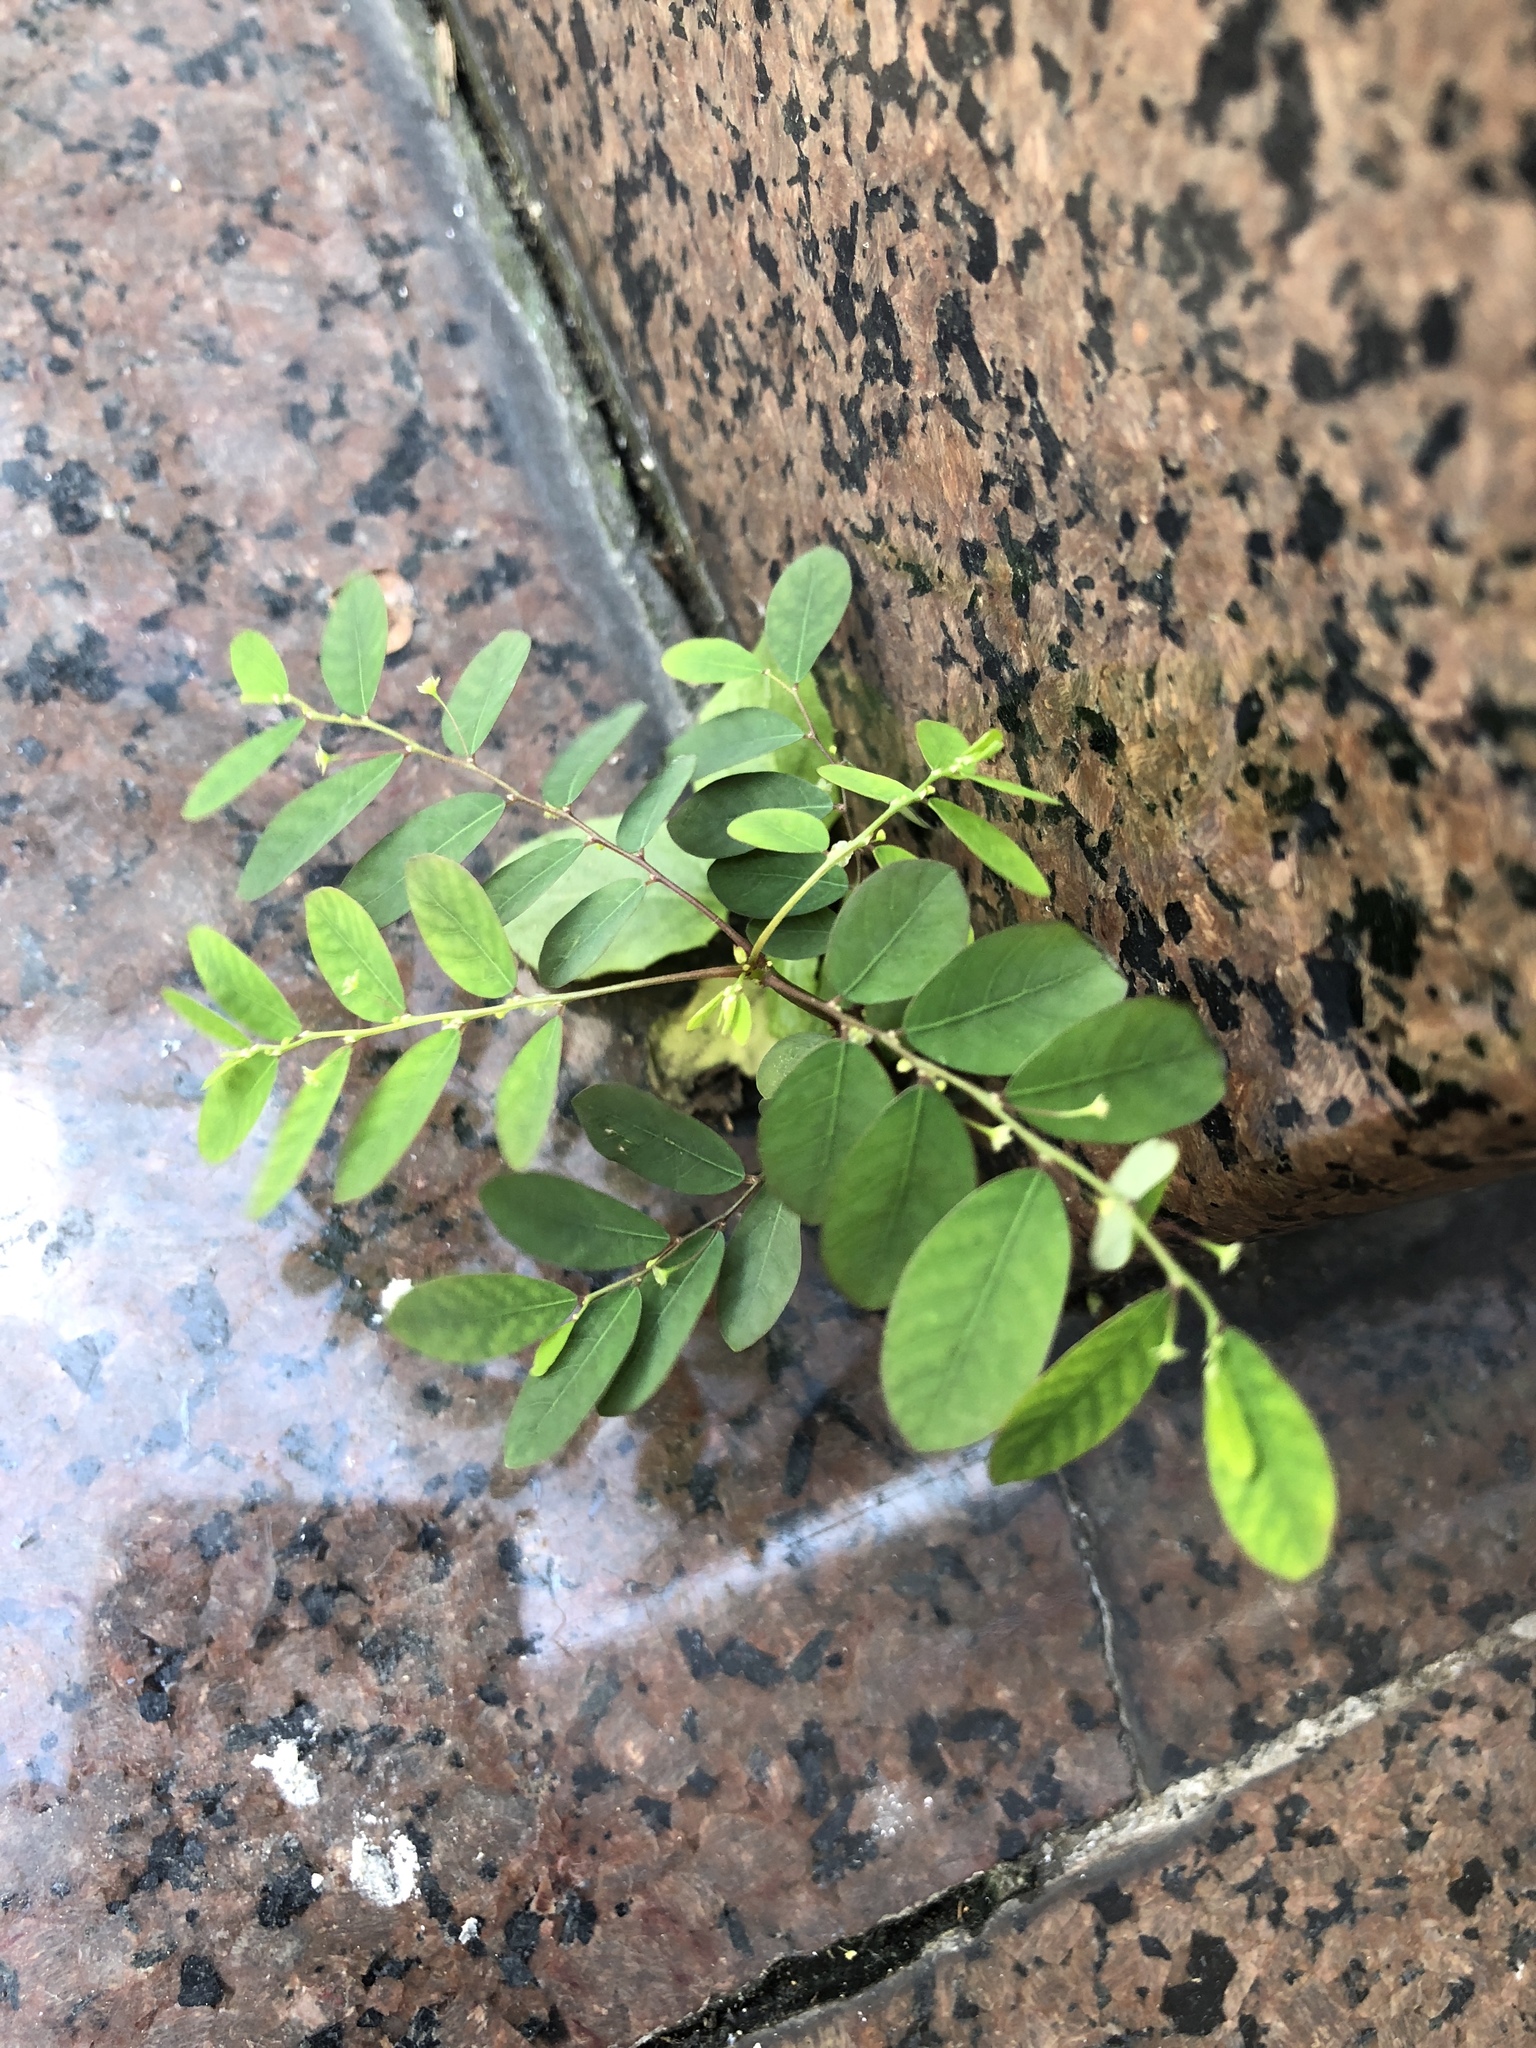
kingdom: Plantae
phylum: Tracheophyta
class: Magnoliopsida
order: Malpighiales
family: Phyllanthaceae
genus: Phyllanthus
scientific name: Phyllanthus tenellus
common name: Mascarene island leaf-flower
